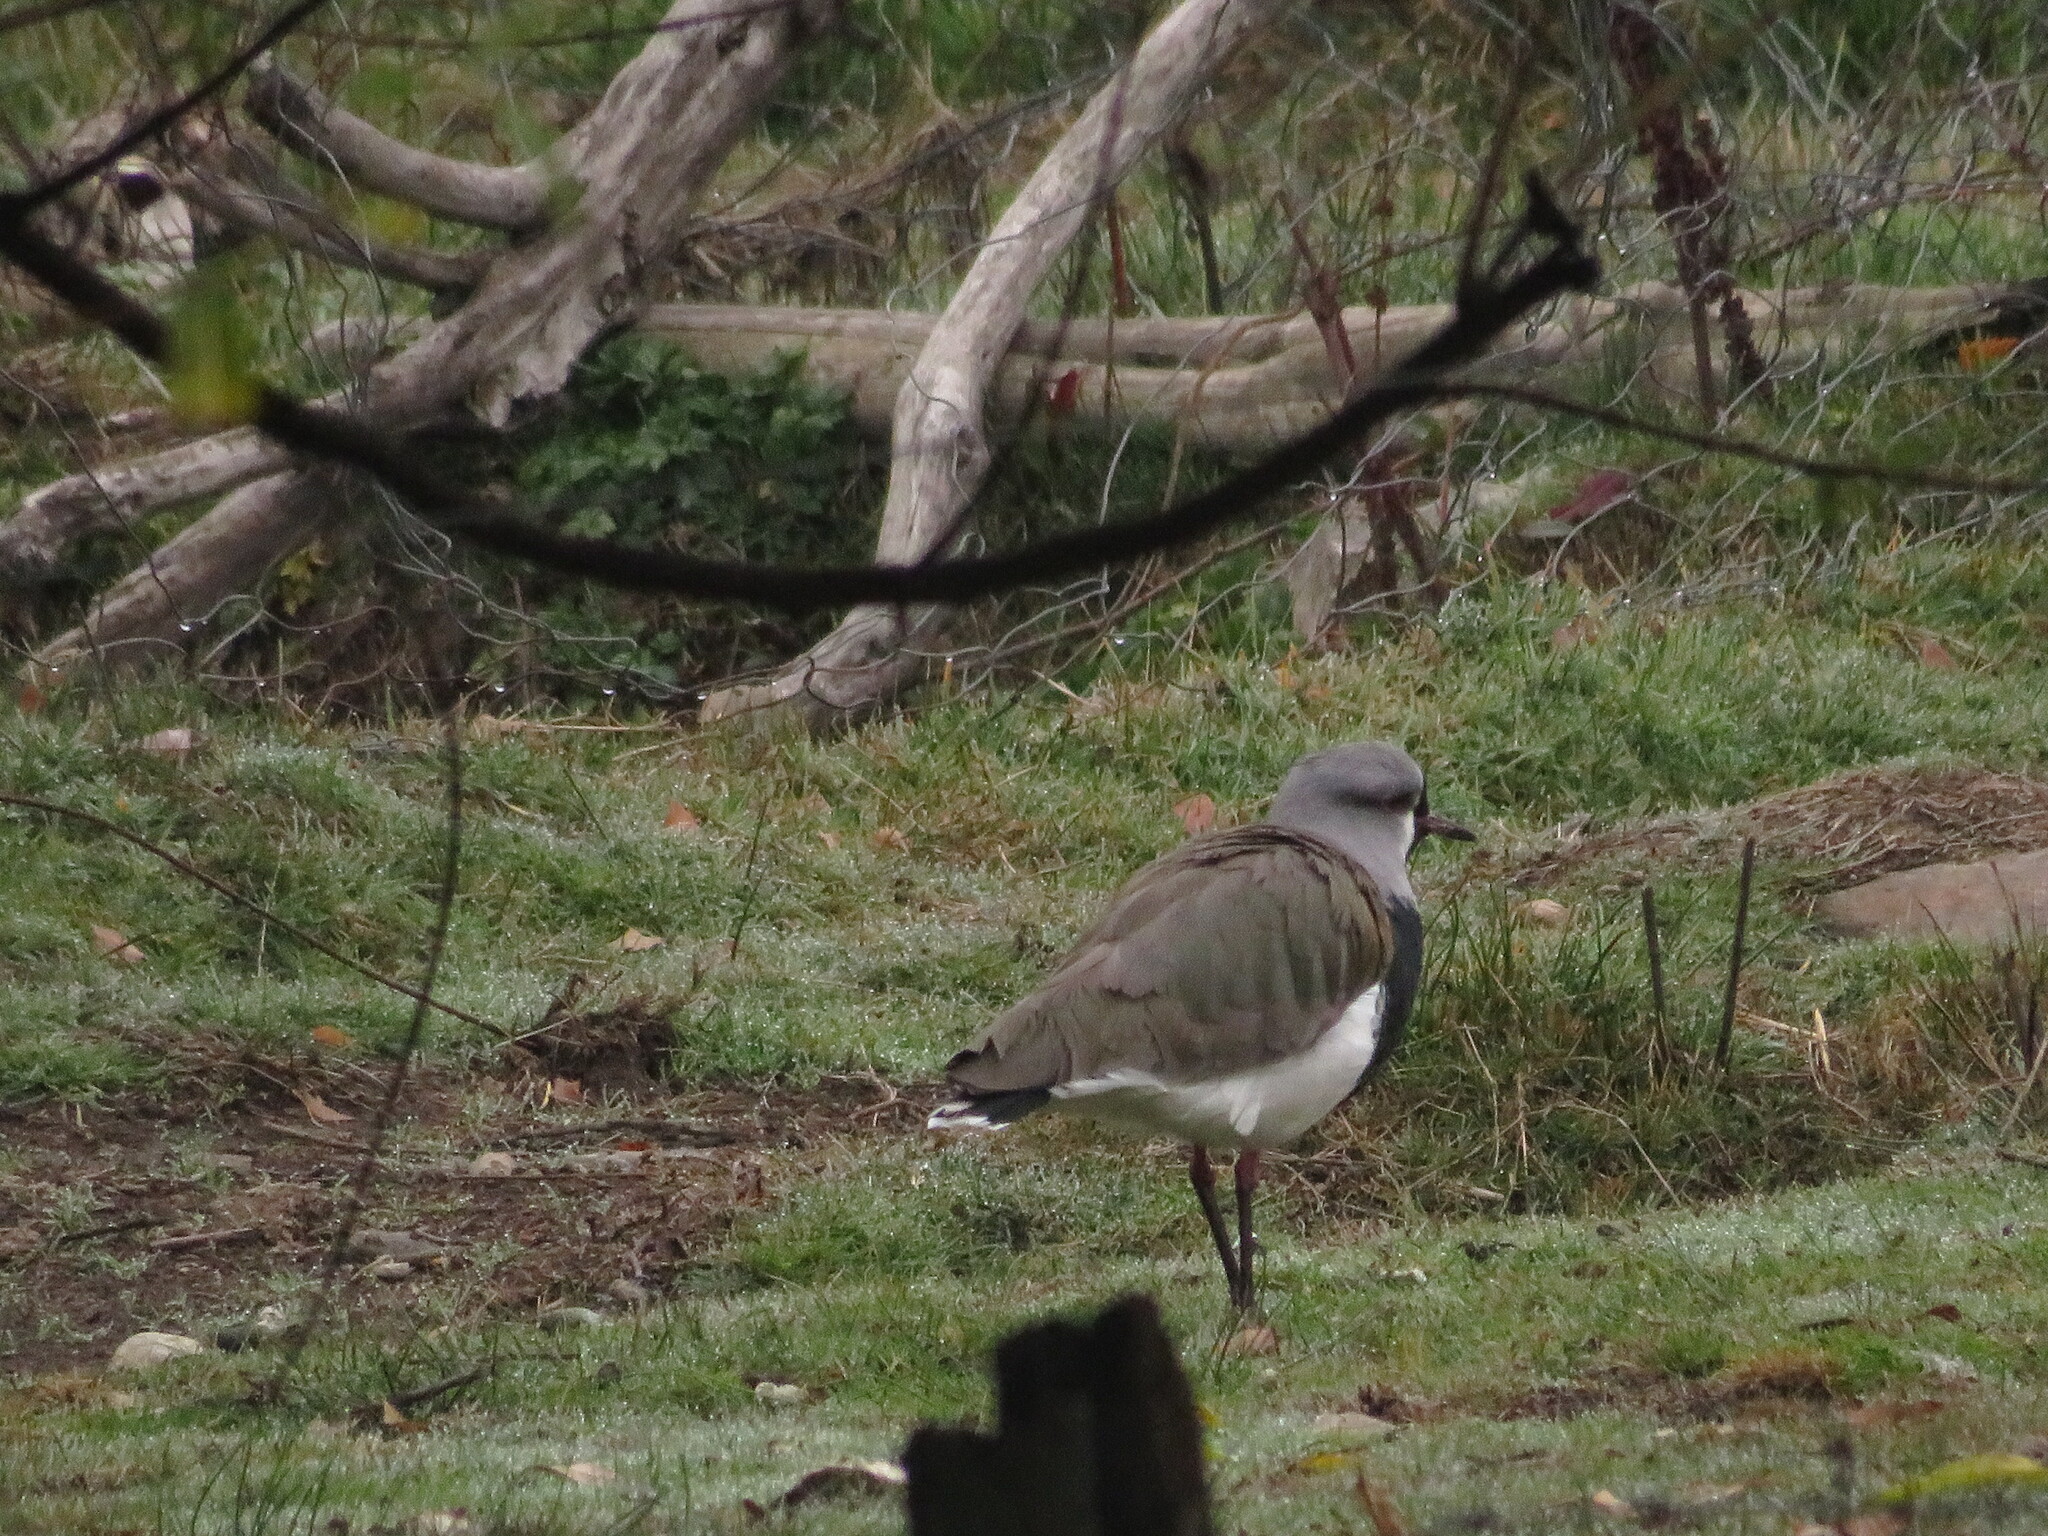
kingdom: Animalia
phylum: Chordata
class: Aves
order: Charadriiformes
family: Charadriidae
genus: Vanellus
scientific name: Vanellus chilensis
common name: Southern lapwing
